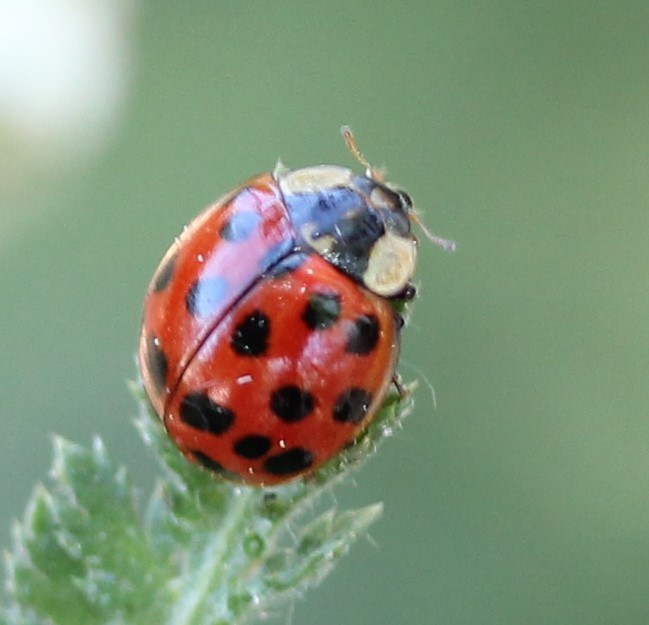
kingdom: Animalia
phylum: Arthropoda
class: Insecta
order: Coleoptera
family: Coccinellidae
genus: Harmonia
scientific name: Harmonia axyridis
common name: Harlequin ladybird
